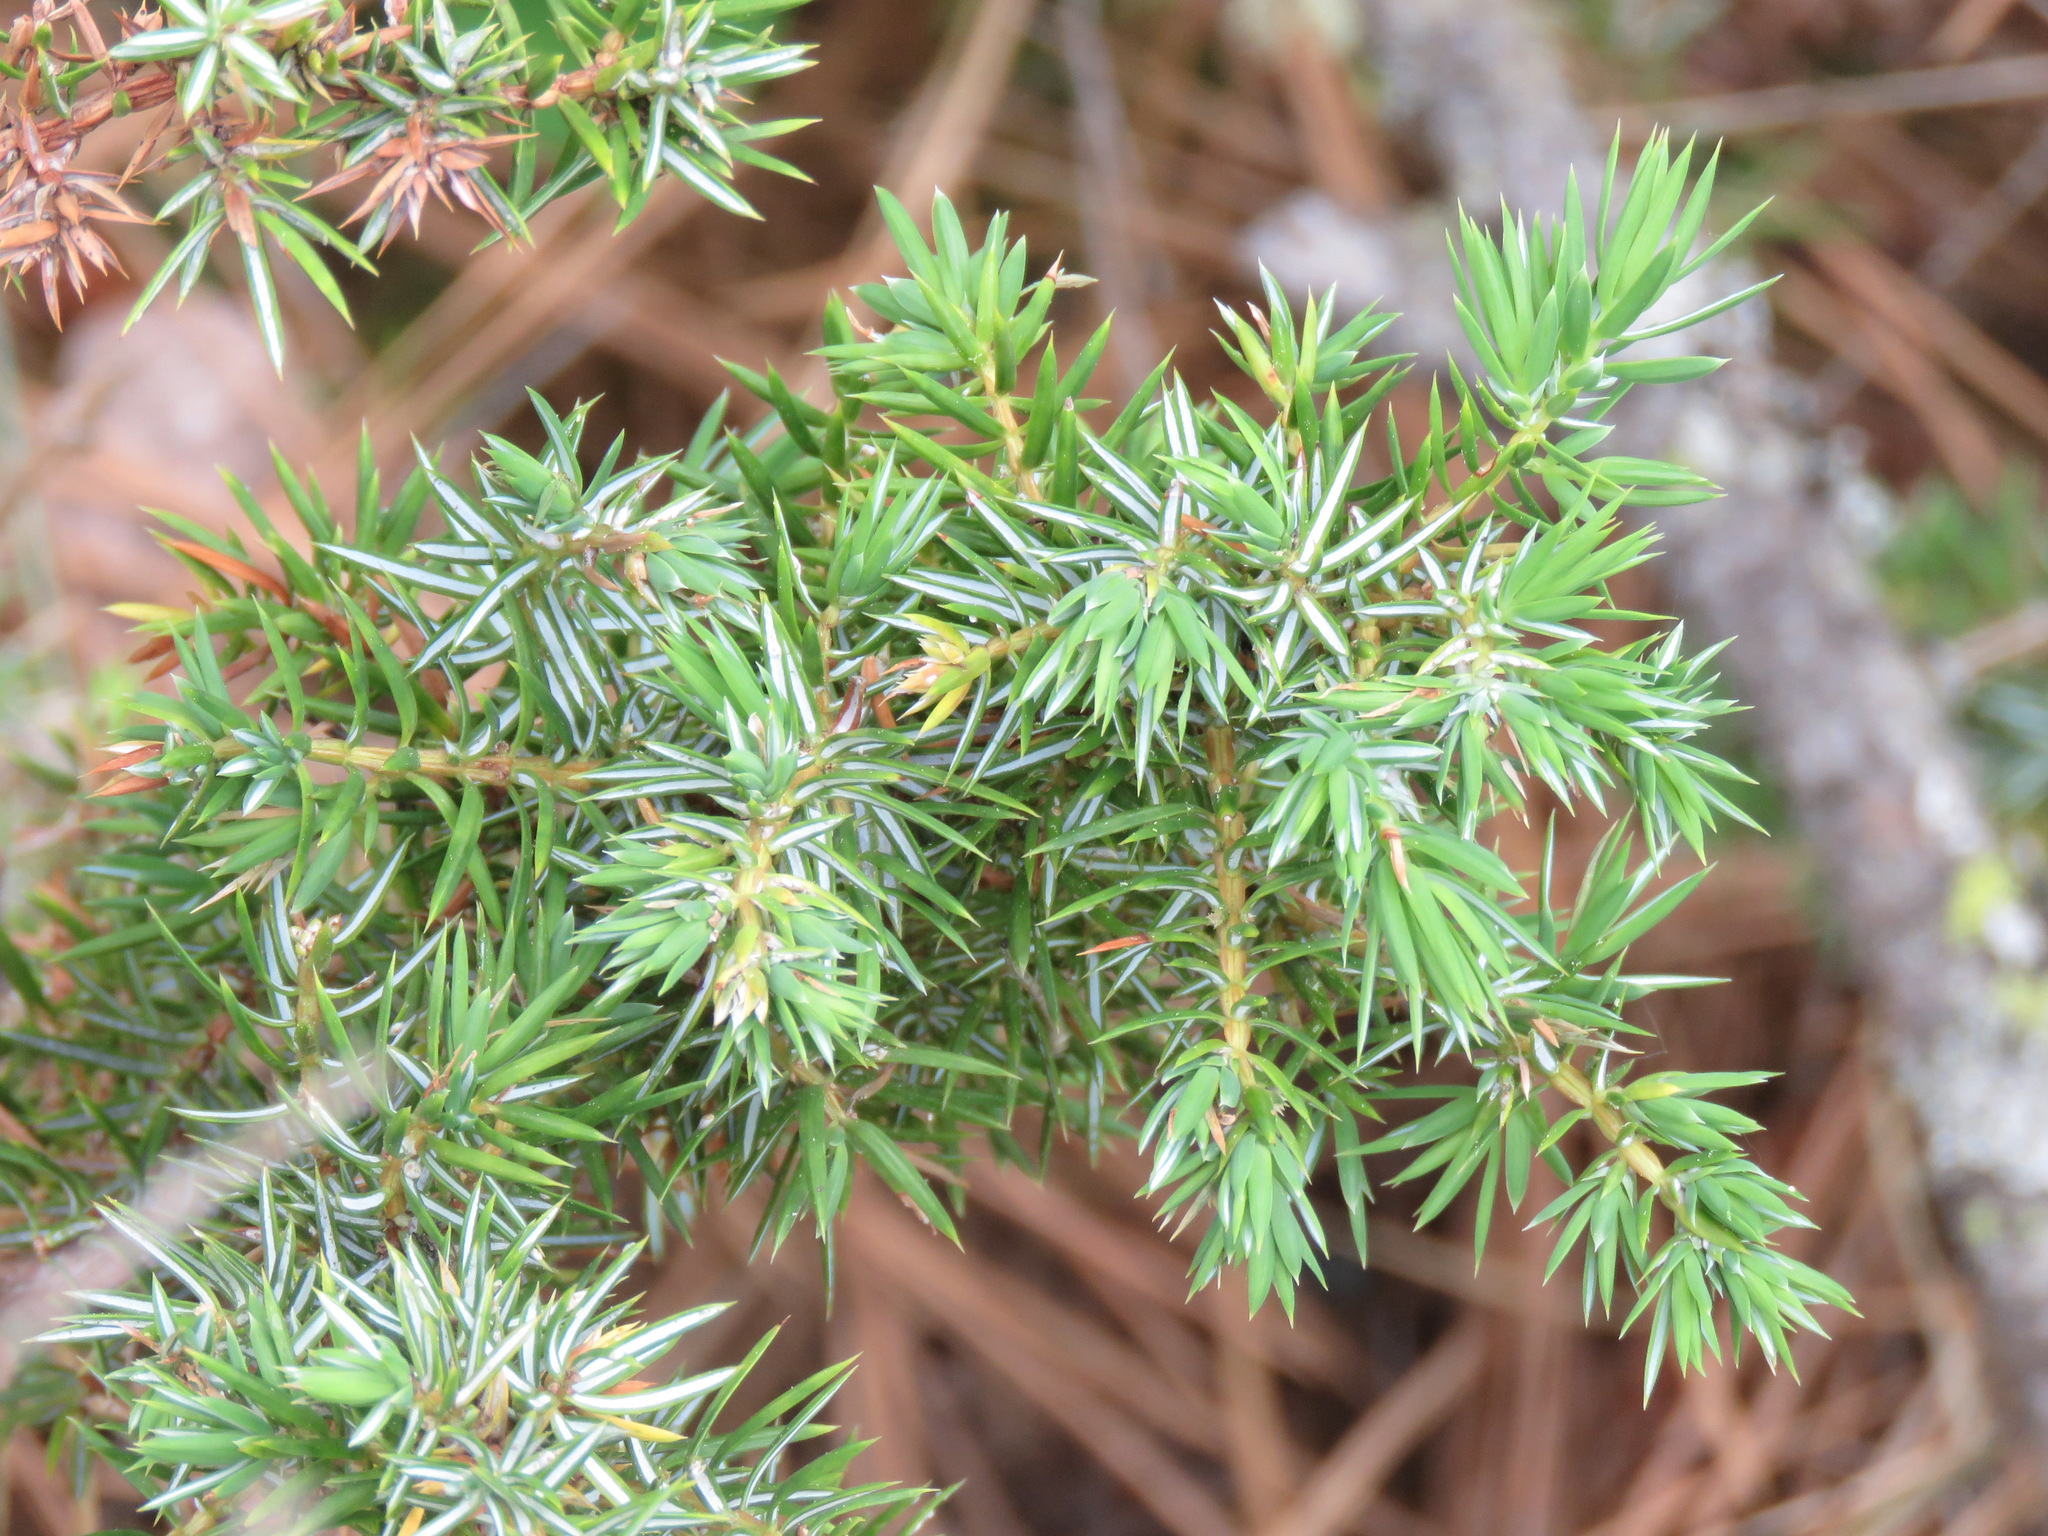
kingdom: Plantae
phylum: Tracheophyta
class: Pinopsida
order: Pinales
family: Cupressaceae
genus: Juniperus
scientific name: Juniperus communis
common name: Common juniper
